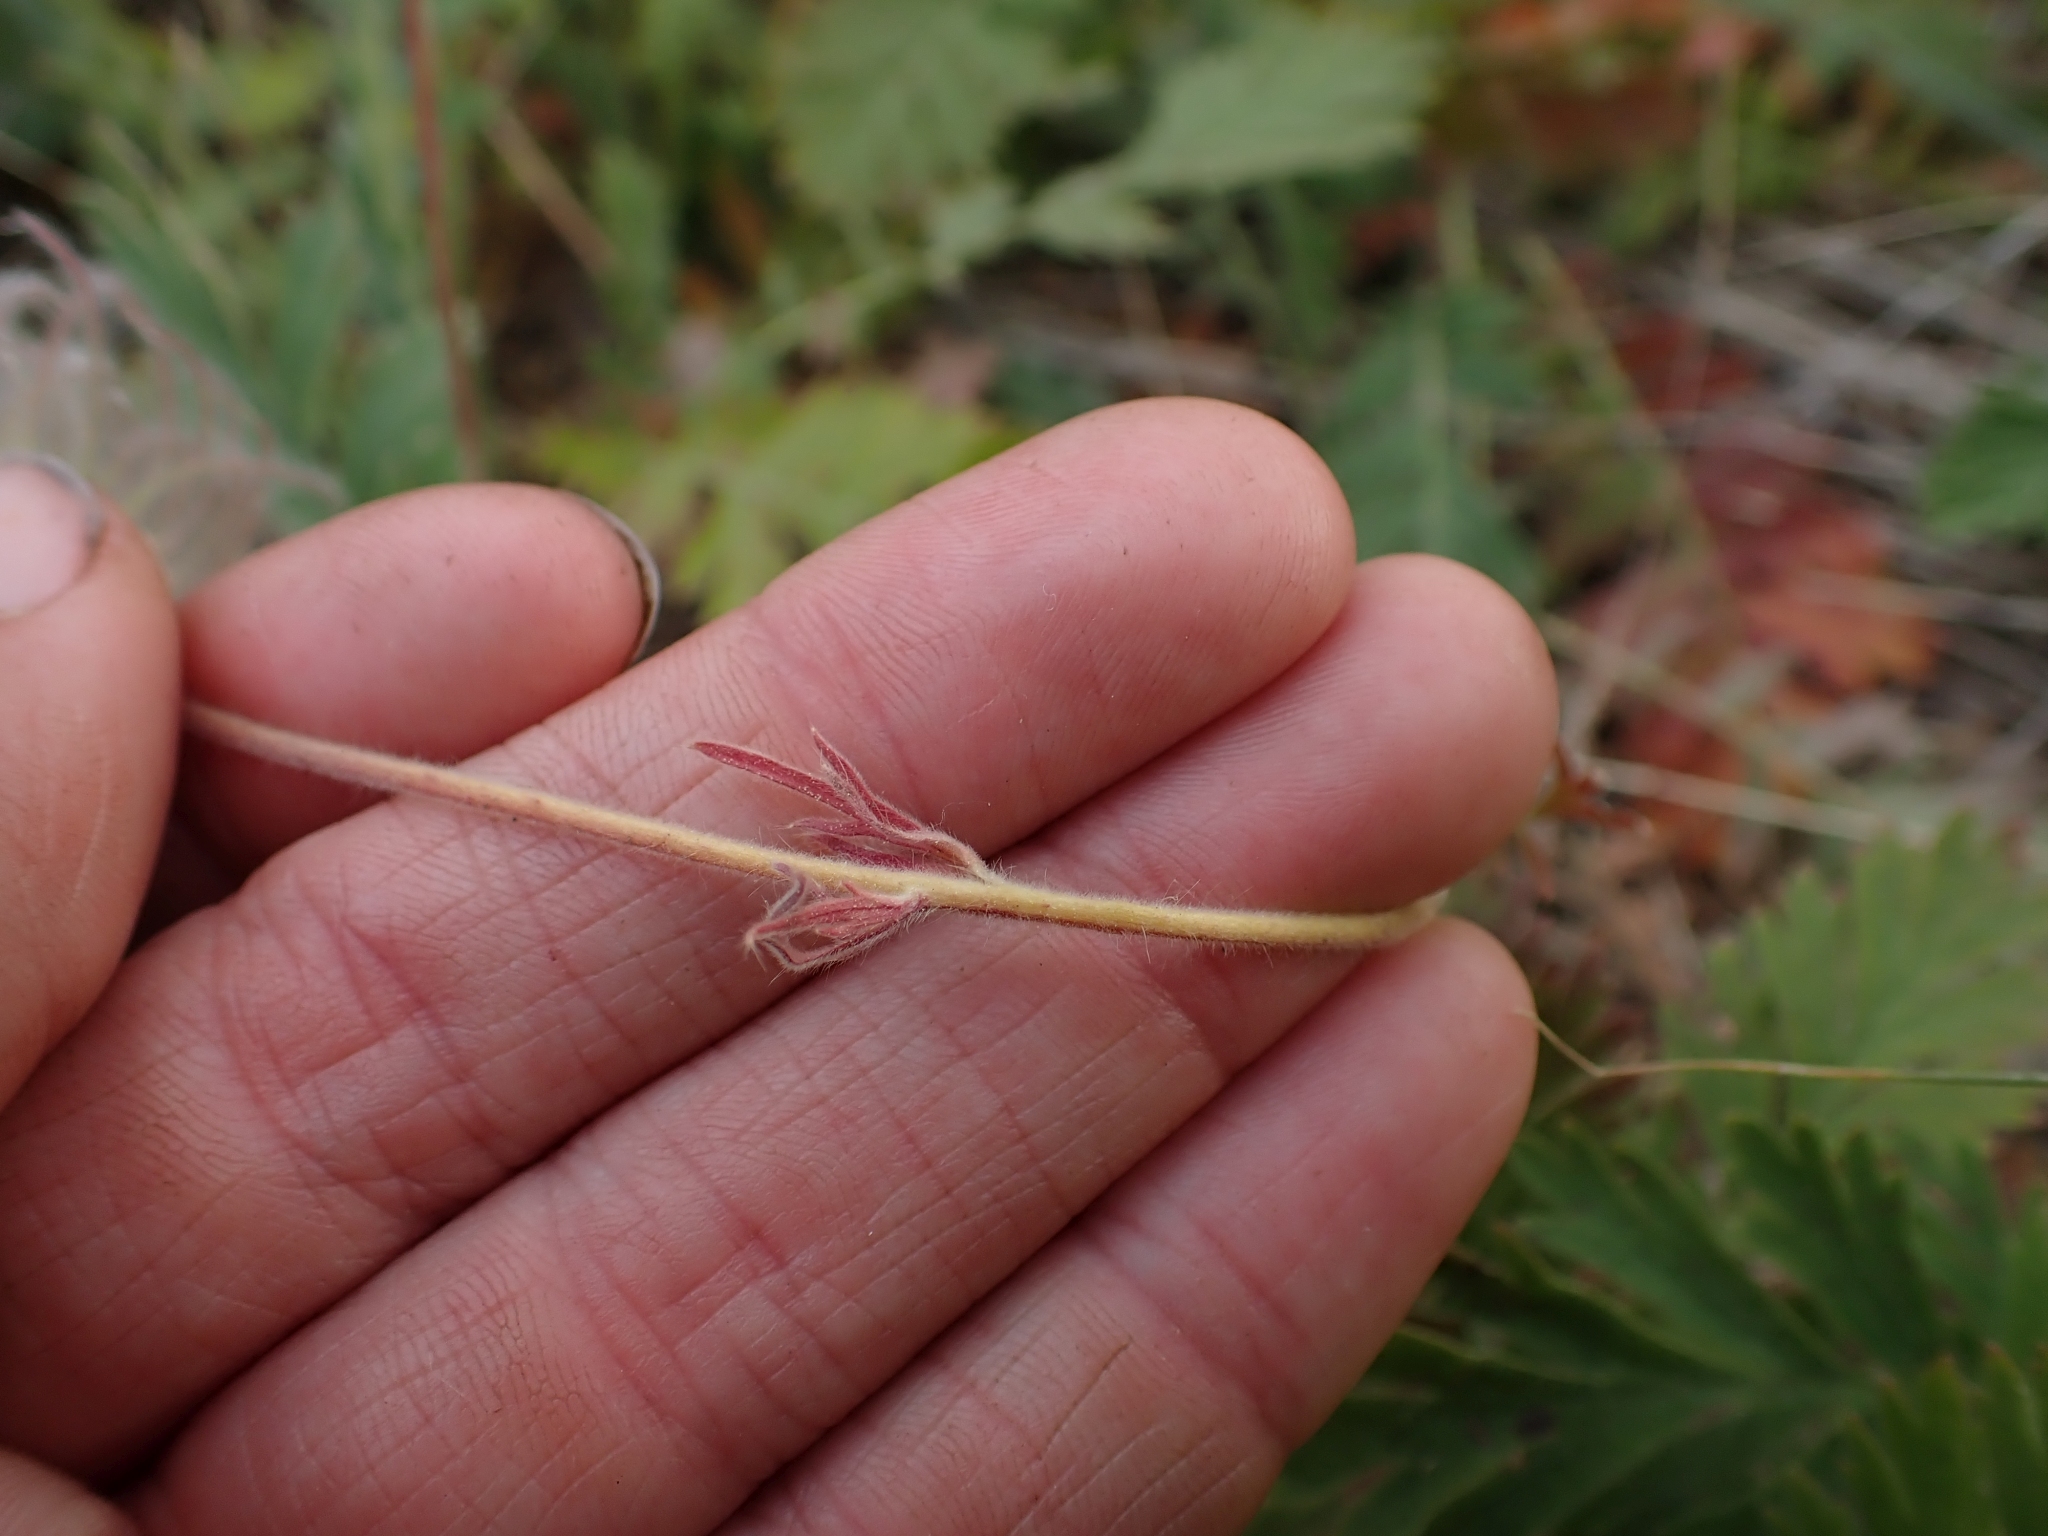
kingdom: Plantae
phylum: Tracheophyta
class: Magnoliopsida
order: Rosales
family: Rosaceae
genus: Geum
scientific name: Geum triflorum
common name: Old man's whiskers
